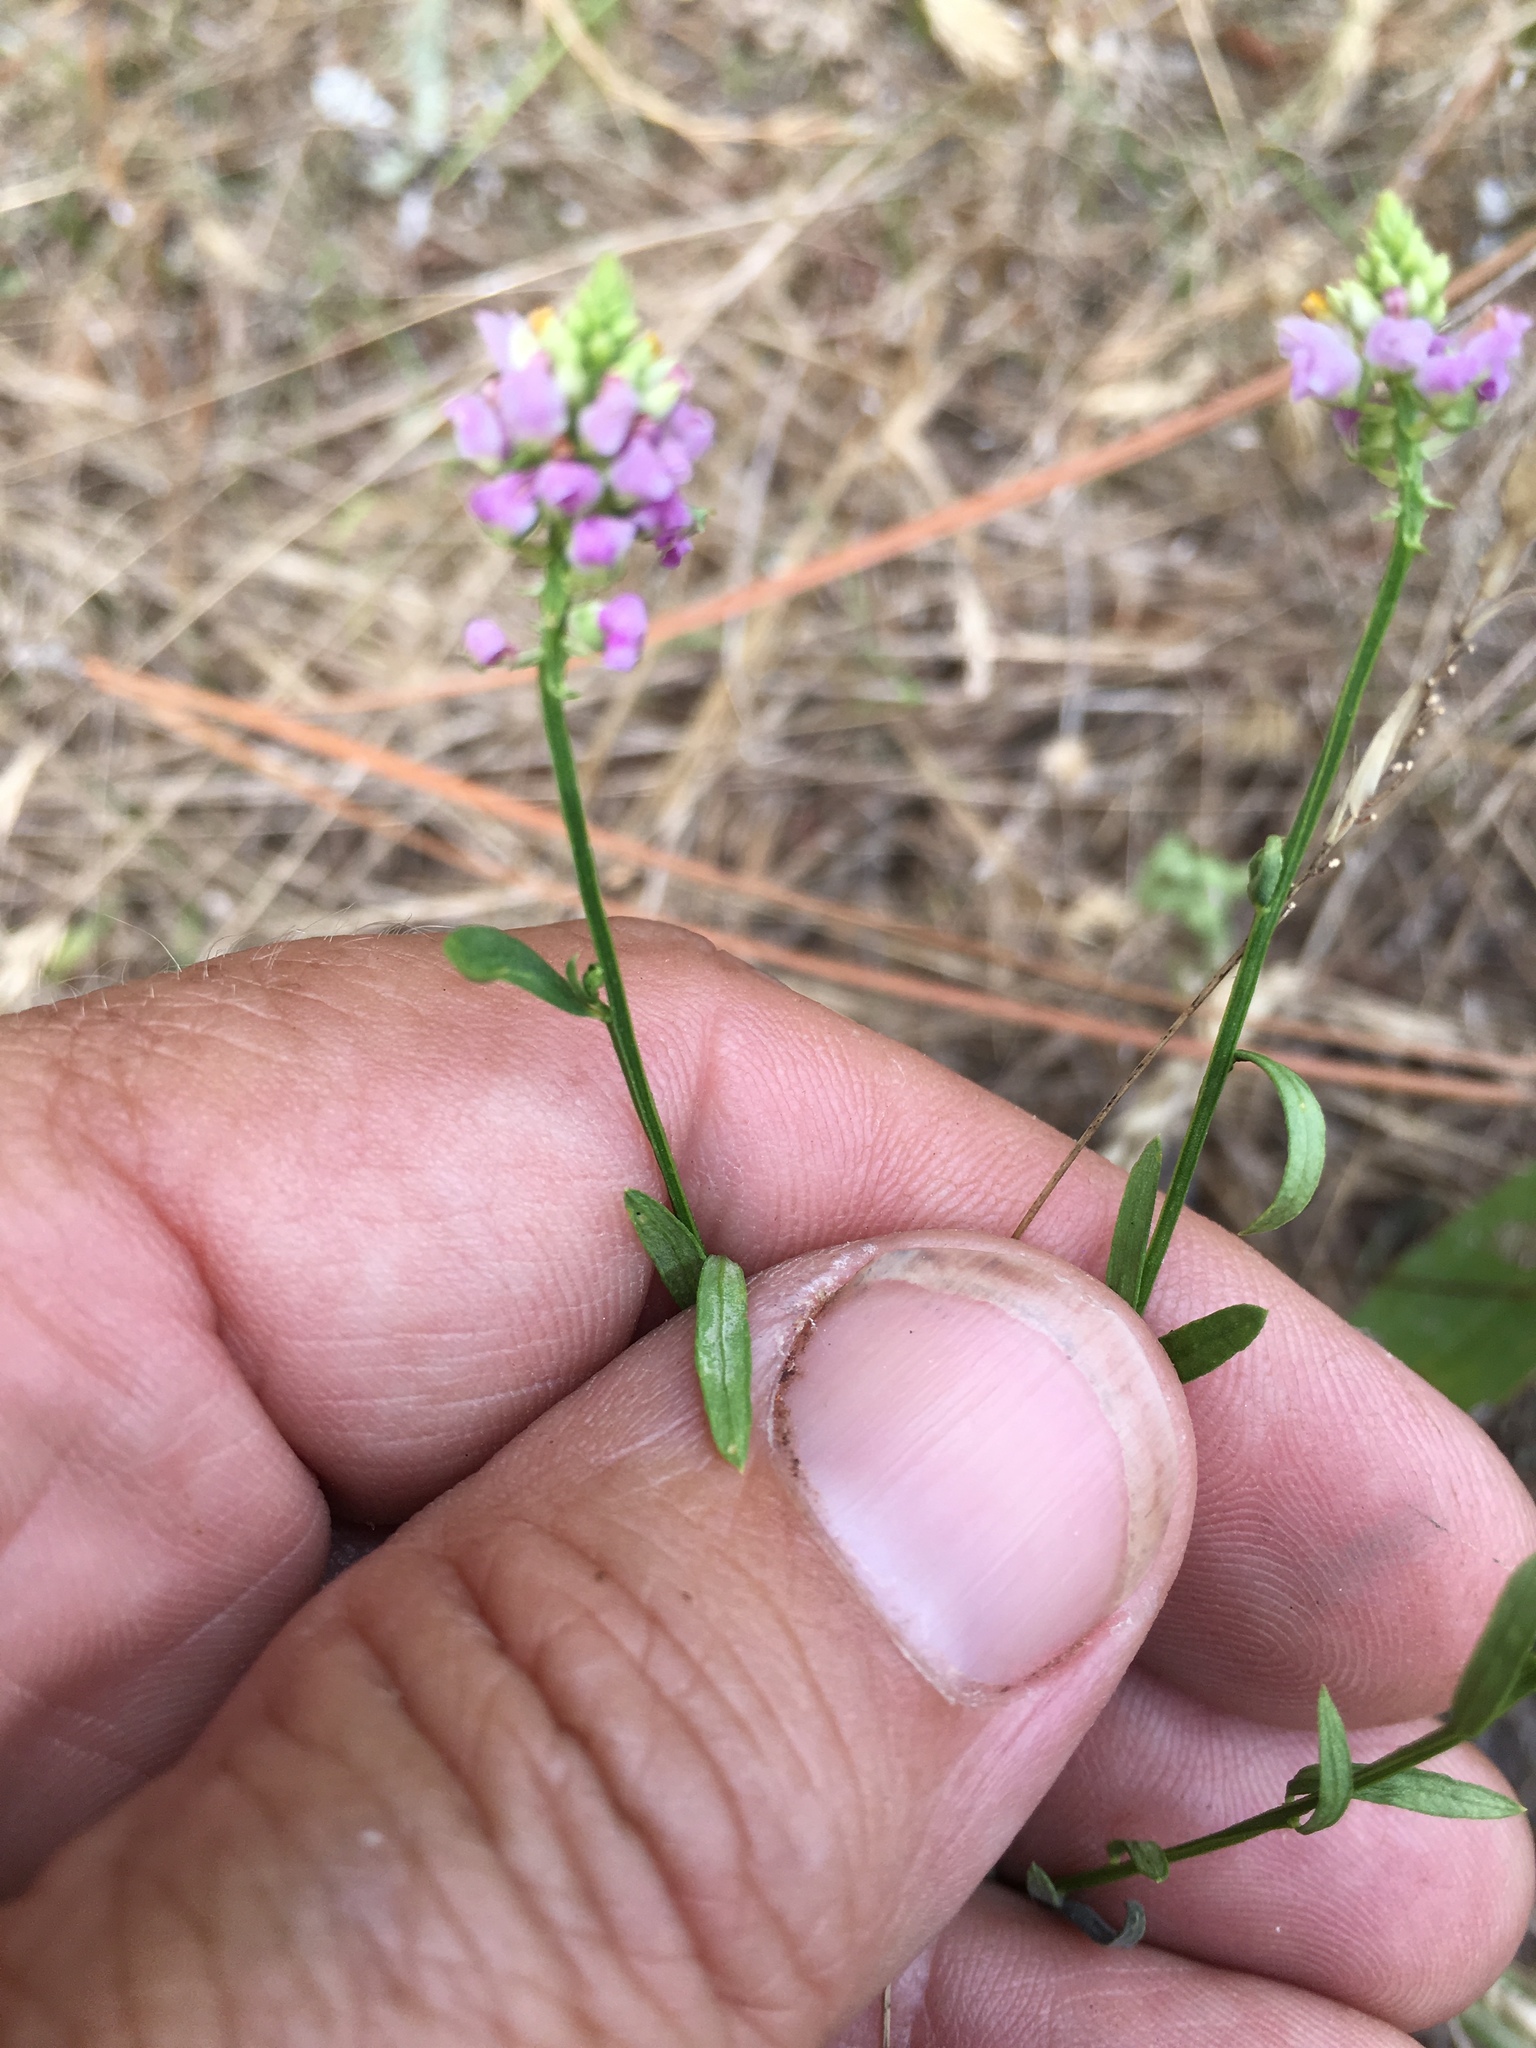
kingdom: Plantae
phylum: Tracheophyta
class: Magnoliopsida
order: Fabales
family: Polygalaceae
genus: Polygala
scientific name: Polygala curtissii
